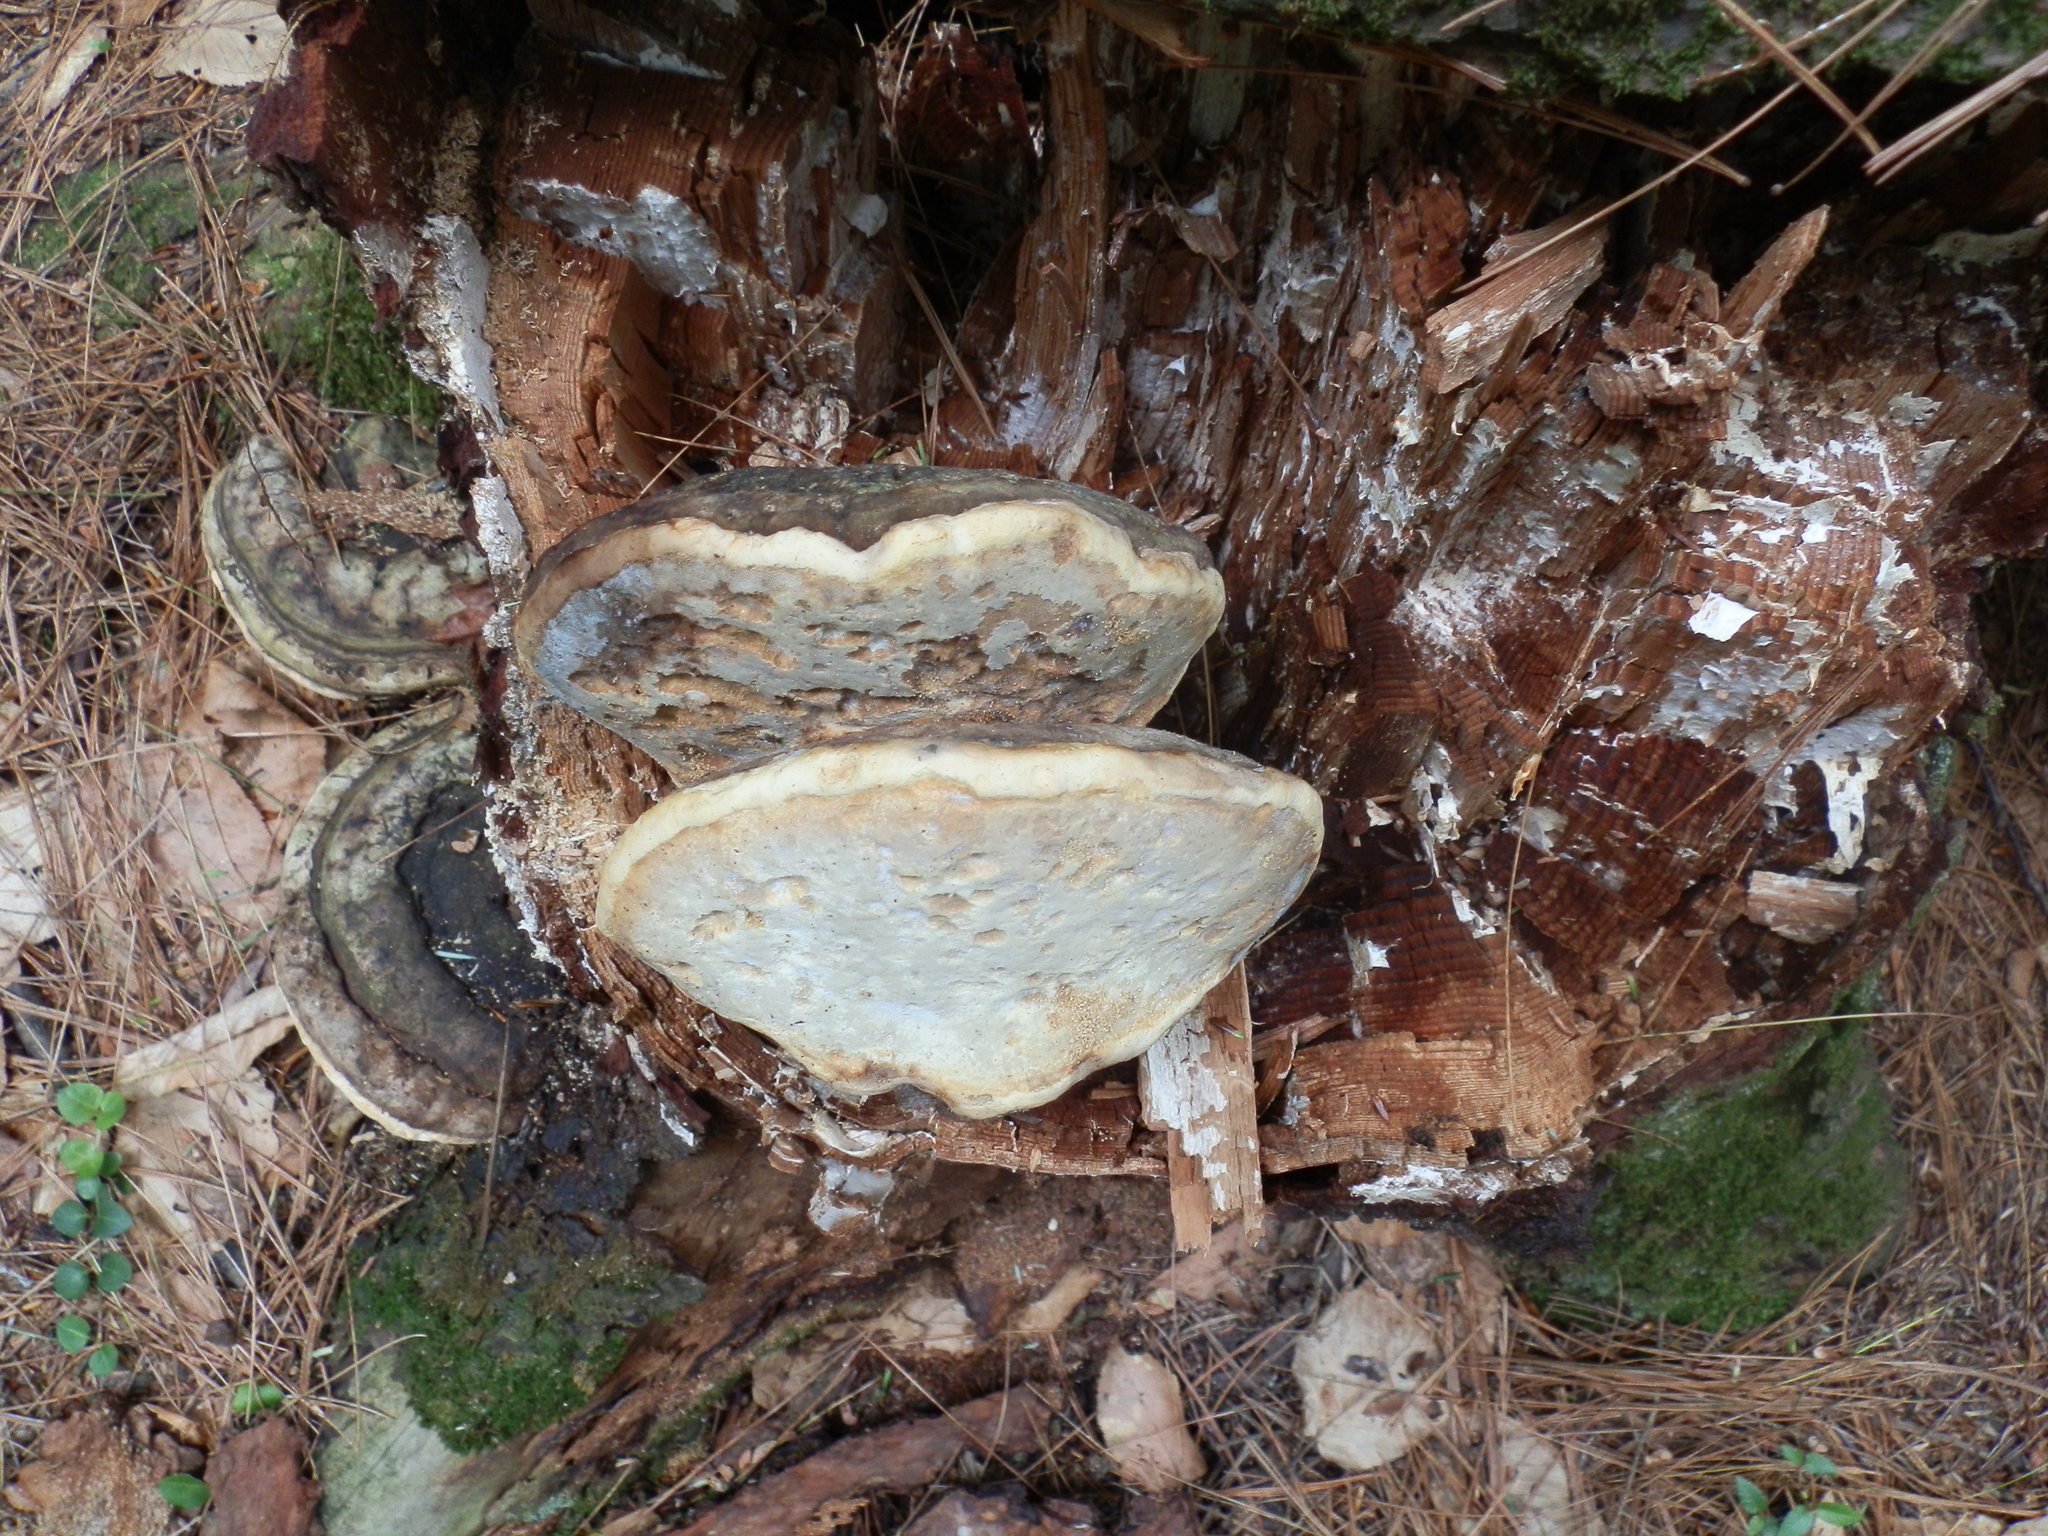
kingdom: Fungi
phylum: Basidiomycota
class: Agaricomycetes
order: Polyporales
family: Fomitopsidaceae
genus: Fomitopsis
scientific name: Fomitopsis ochracea
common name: American brown fomitopsis
